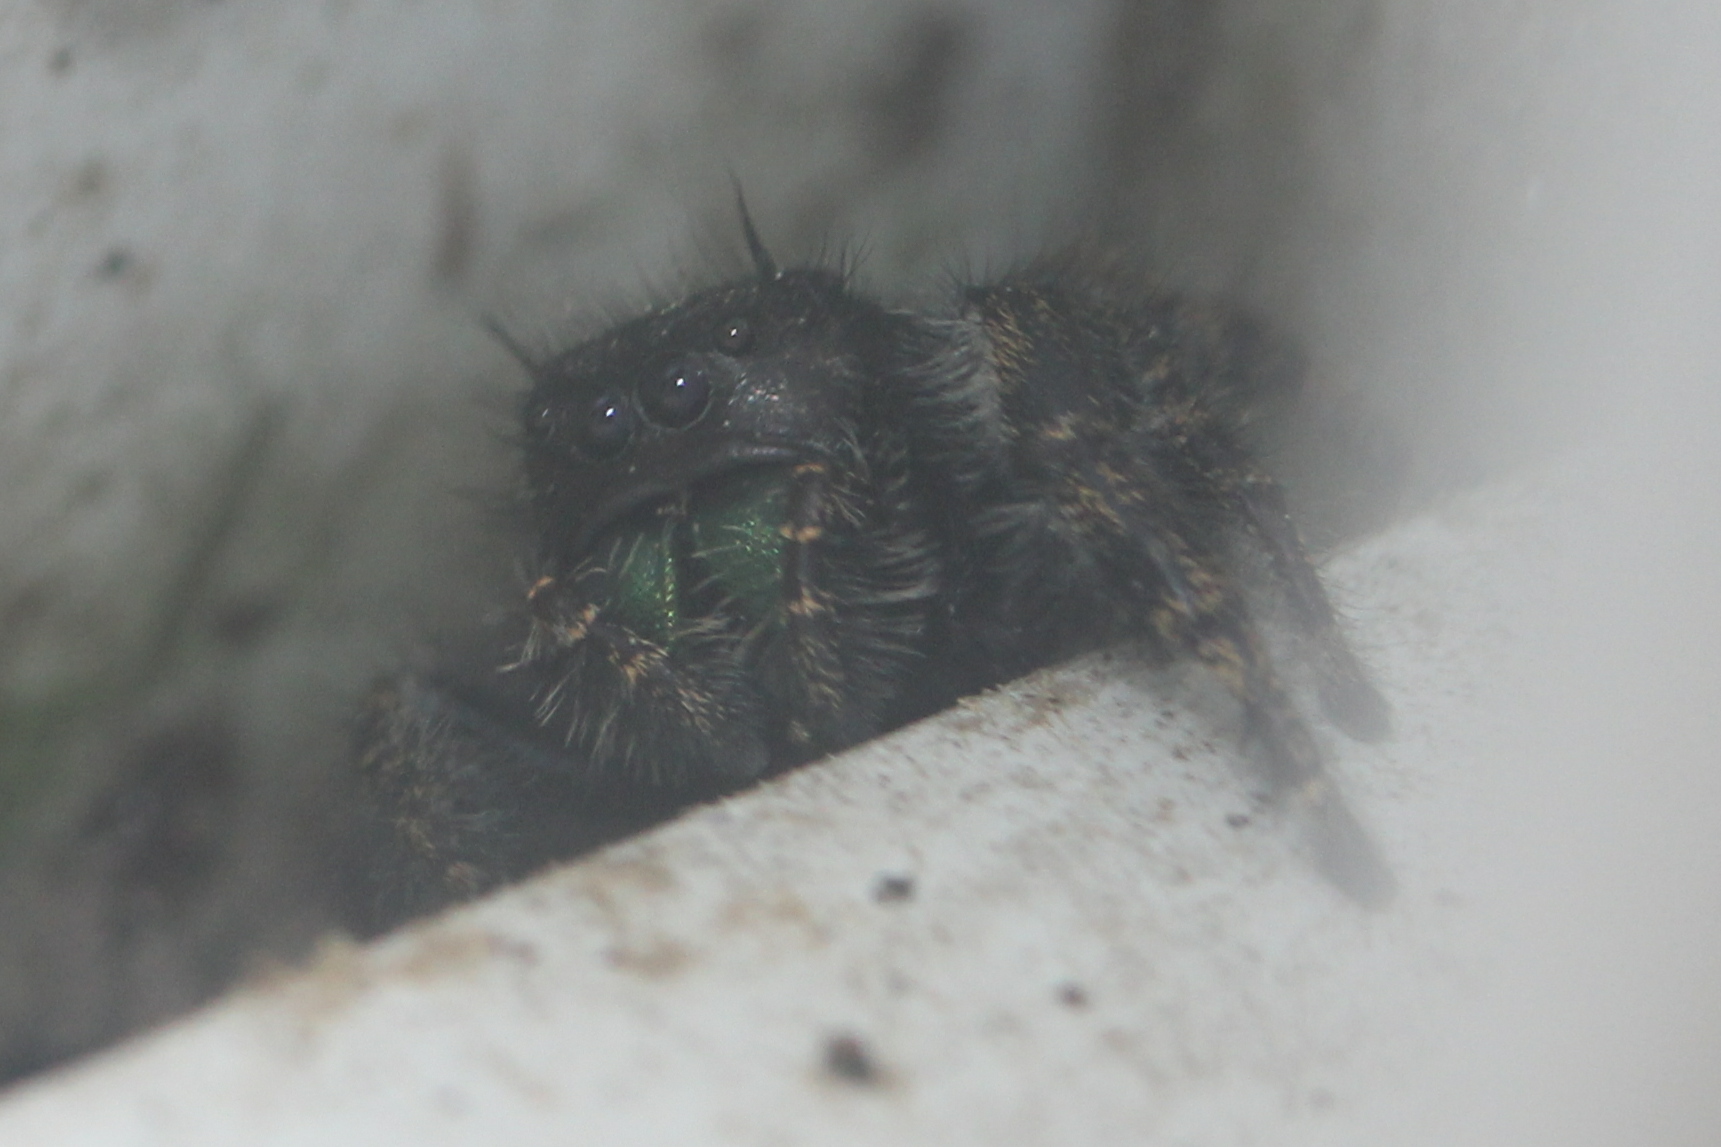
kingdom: Animalia
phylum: Arthropoda
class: Arachnida
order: Araneae
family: Salticidae
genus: Phidippus
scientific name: Phidippus audax
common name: Bold jumper
